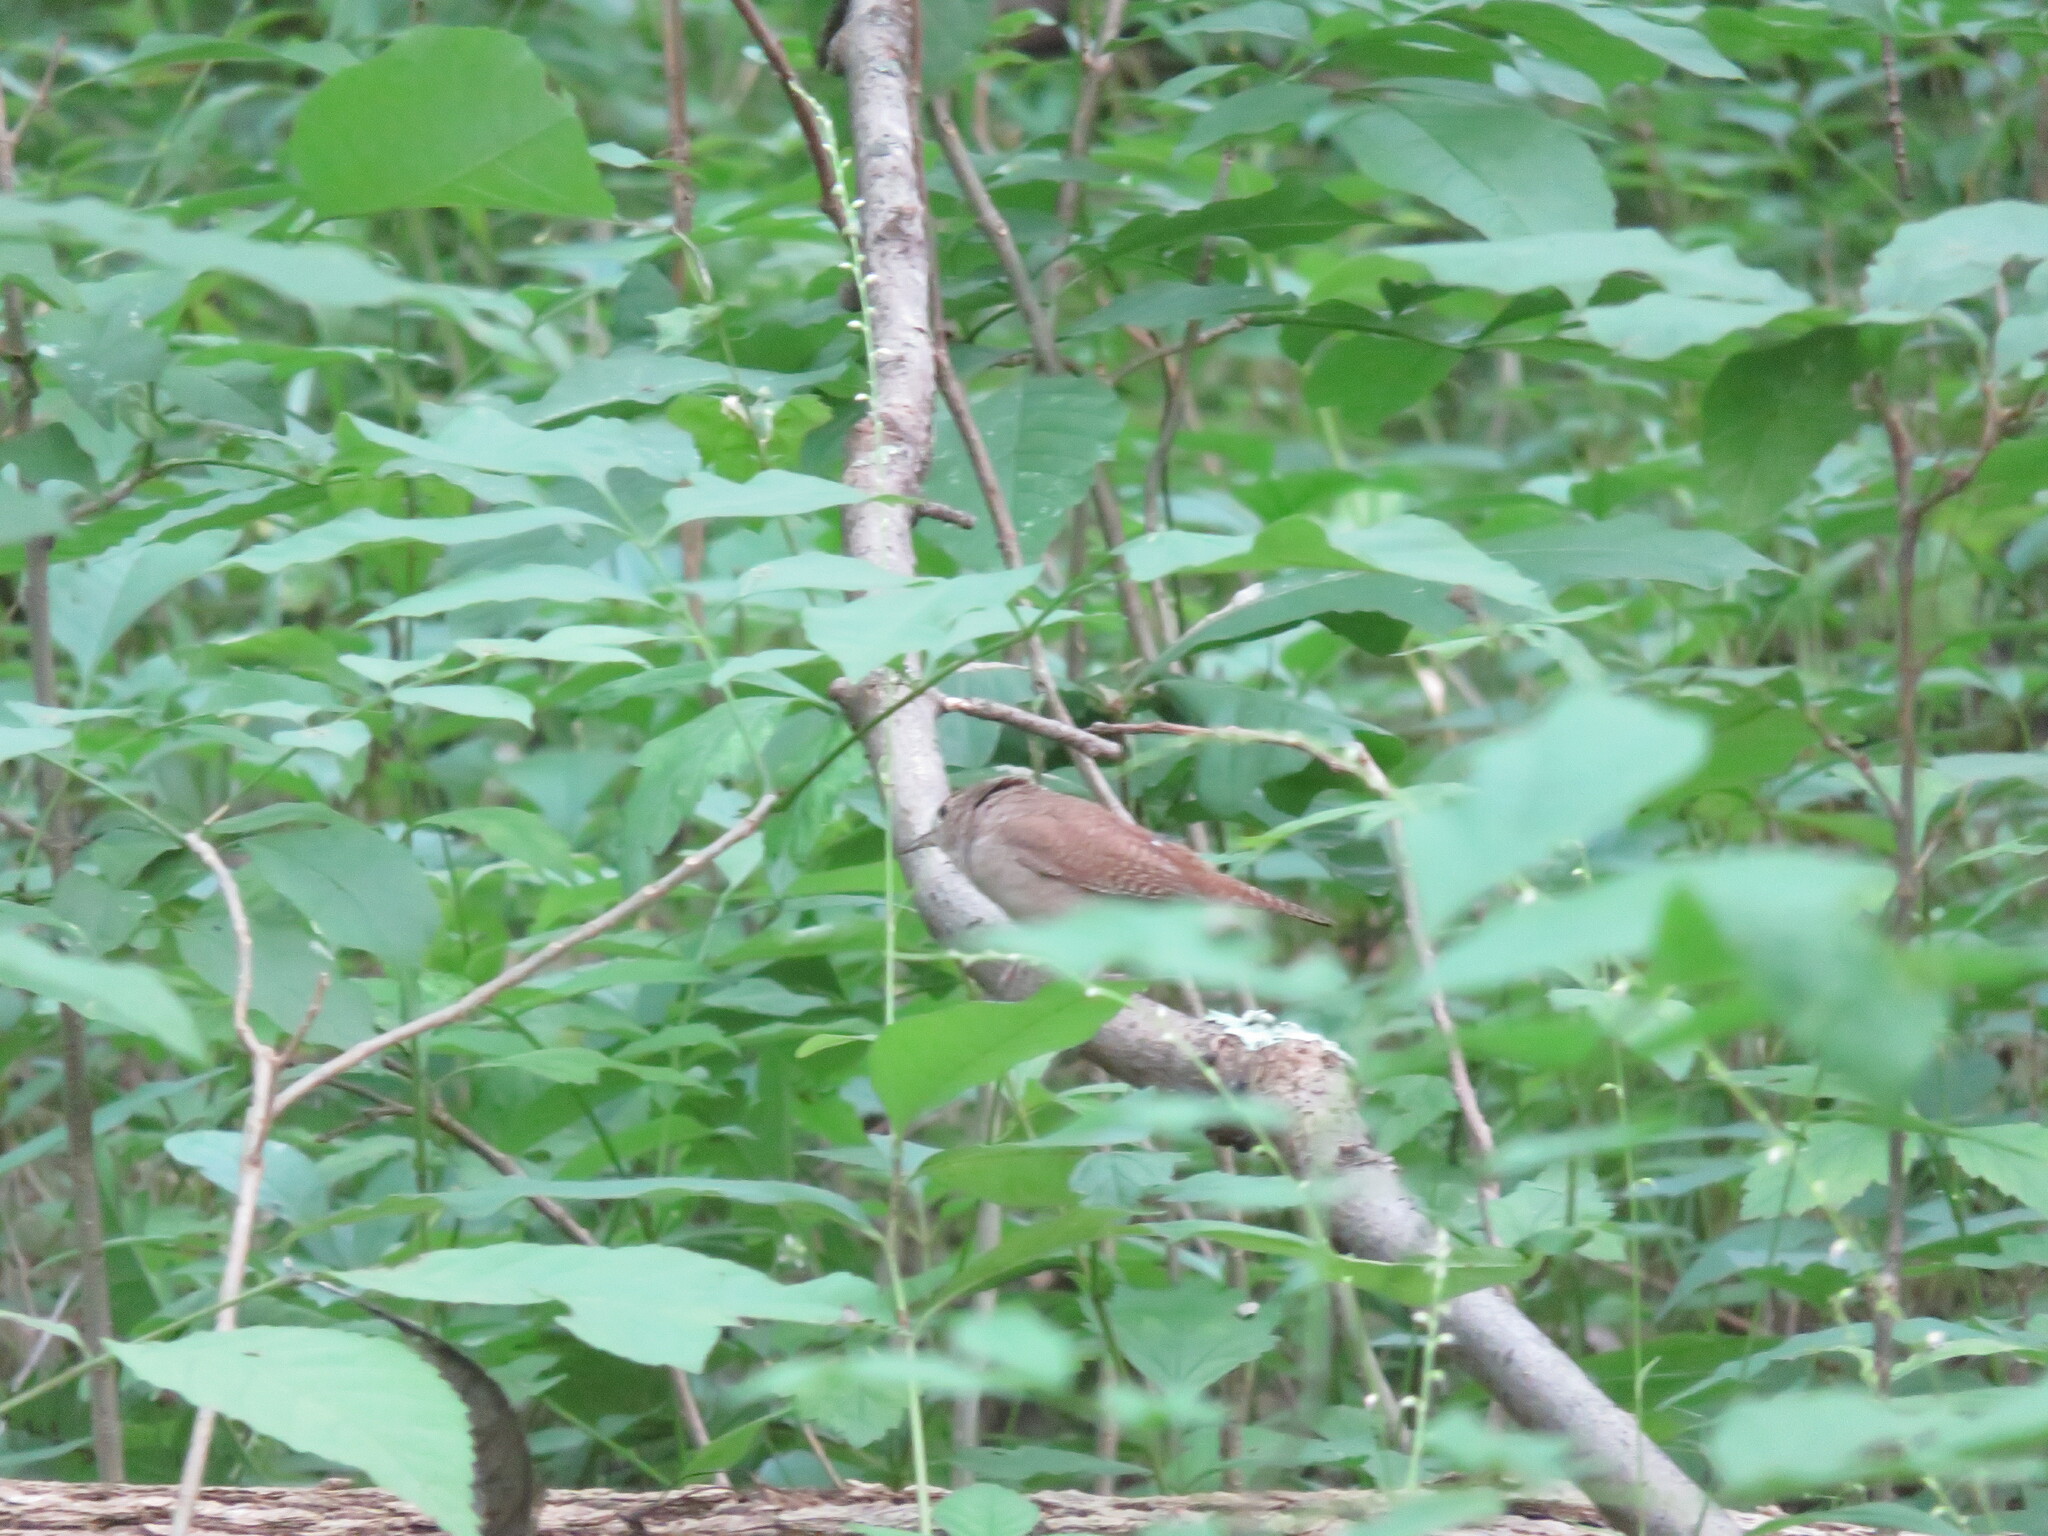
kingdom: Animalia
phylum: Chordata
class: Aves
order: Passeriformes
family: Troglodytidae
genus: Troglodytes
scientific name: Troglodytes aedon
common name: House wren
